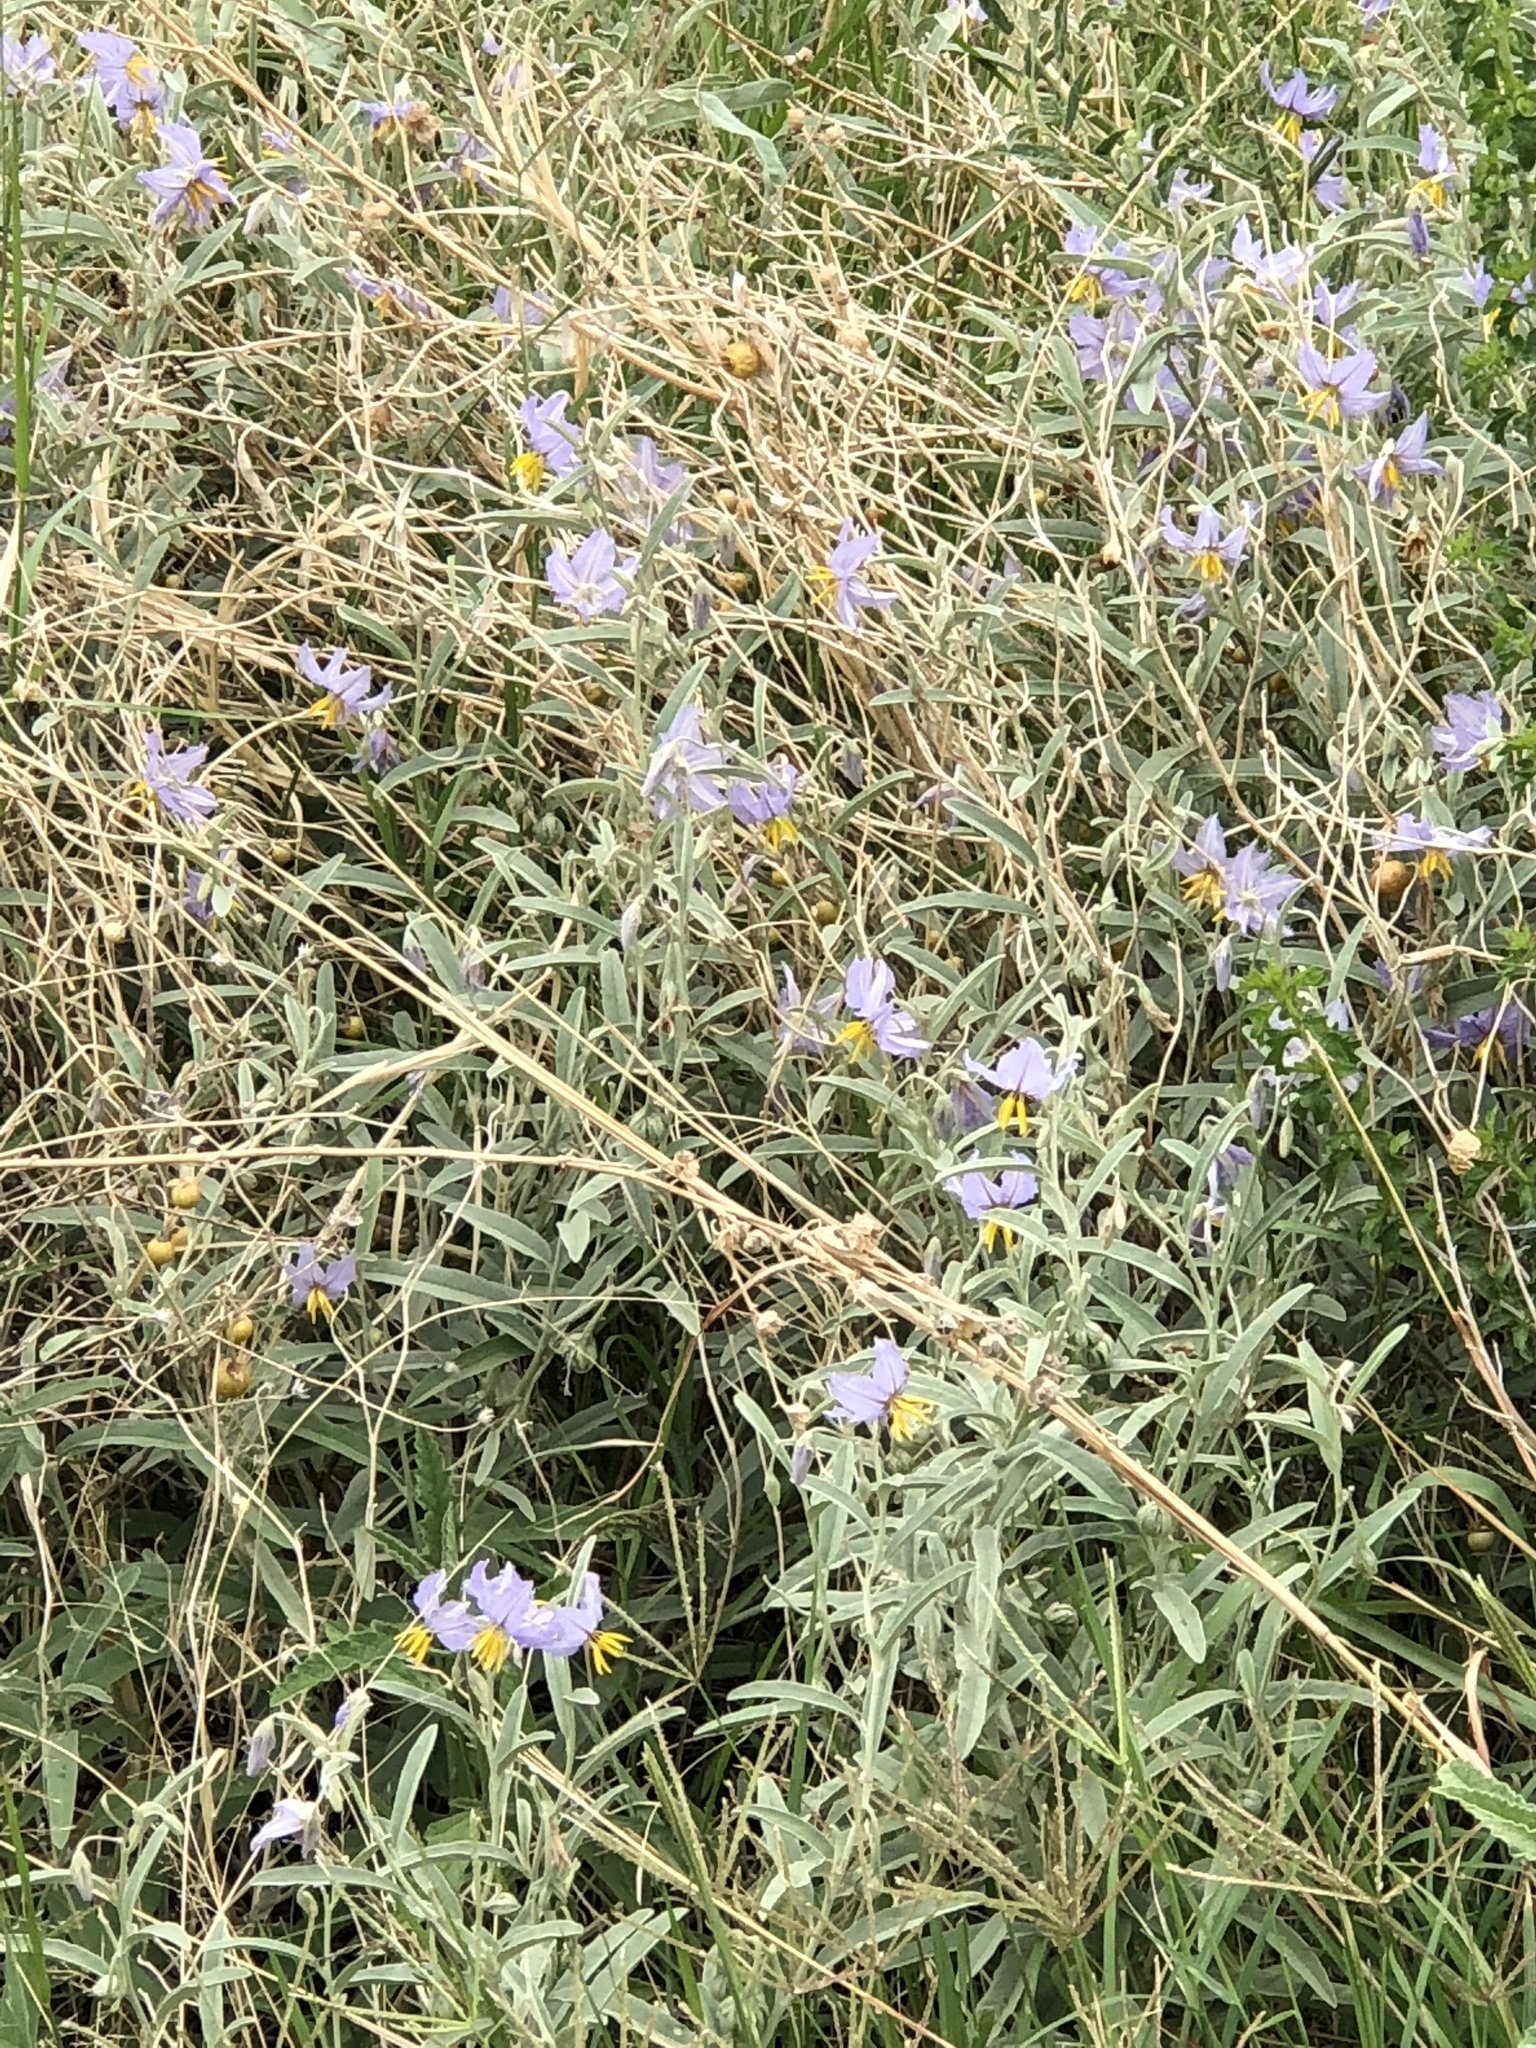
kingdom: Plantae
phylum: Tracheophyta
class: Magnoliopsida
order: Solanales
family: Solanaceae
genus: Solanum
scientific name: Solanum elaeagnifolium
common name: Silverleaf nightshade
